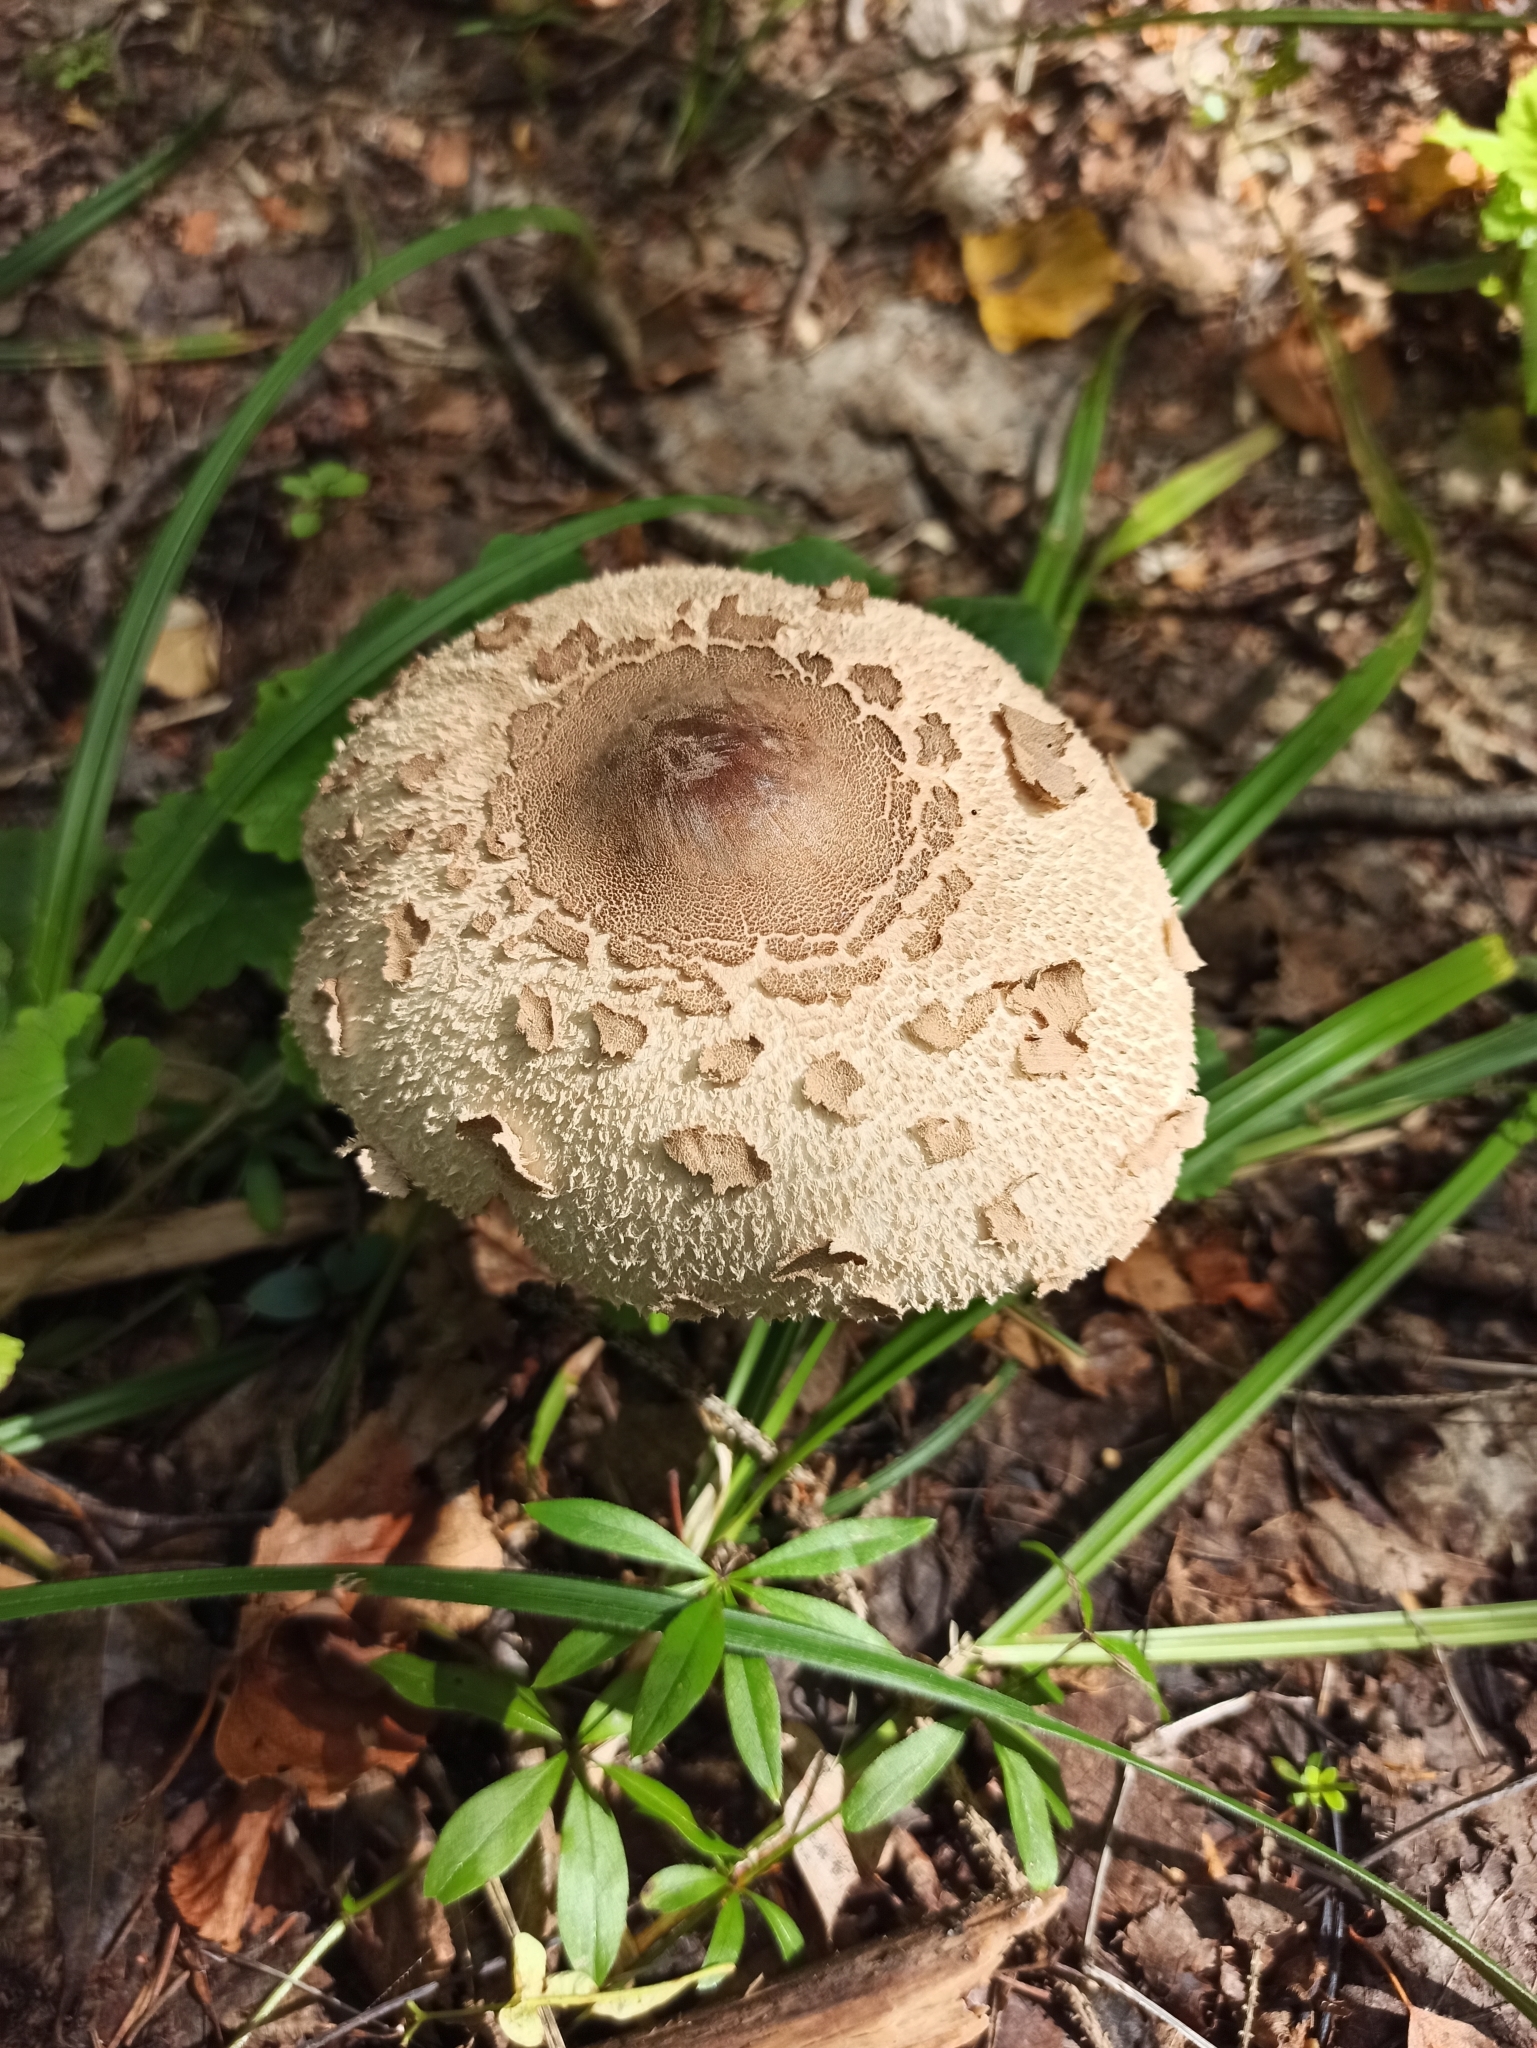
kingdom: Fungi
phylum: Basidiomycota
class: Agaricomycetes
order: Agaricales
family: Agaricaceae
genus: Macrolepiota
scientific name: Macrolepiota procera
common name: Parasol
